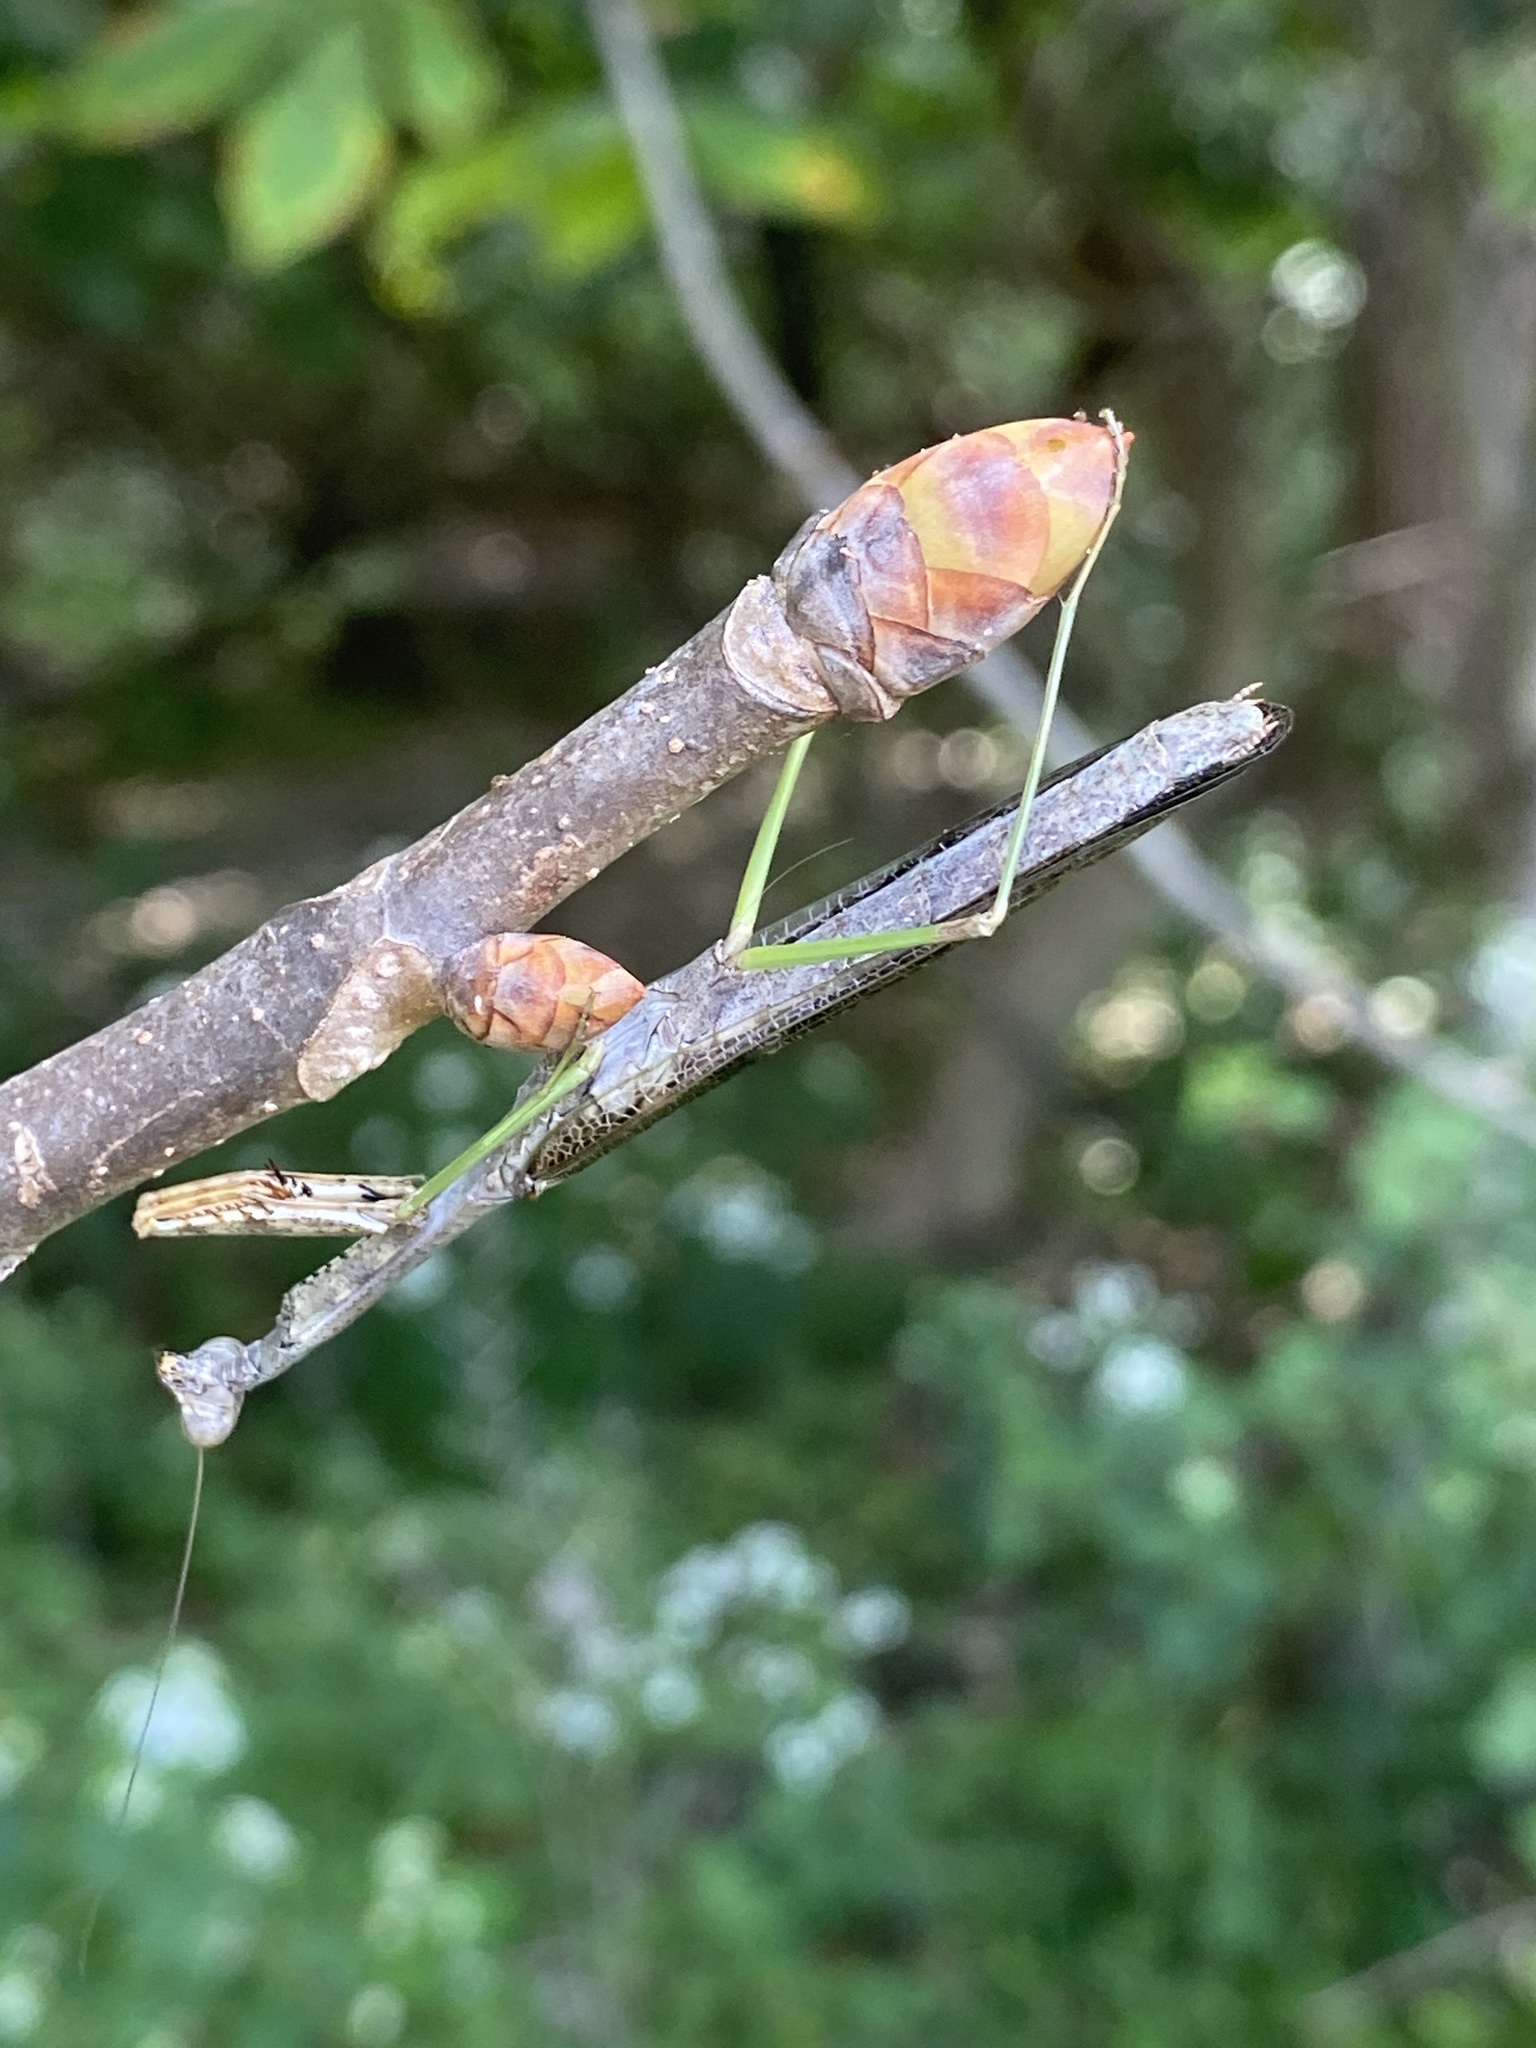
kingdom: Animalia
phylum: Arthropoda
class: Insecta
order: Mantodea
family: Mantidae
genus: Stagmomantis
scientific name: Stagmomantis carolina
